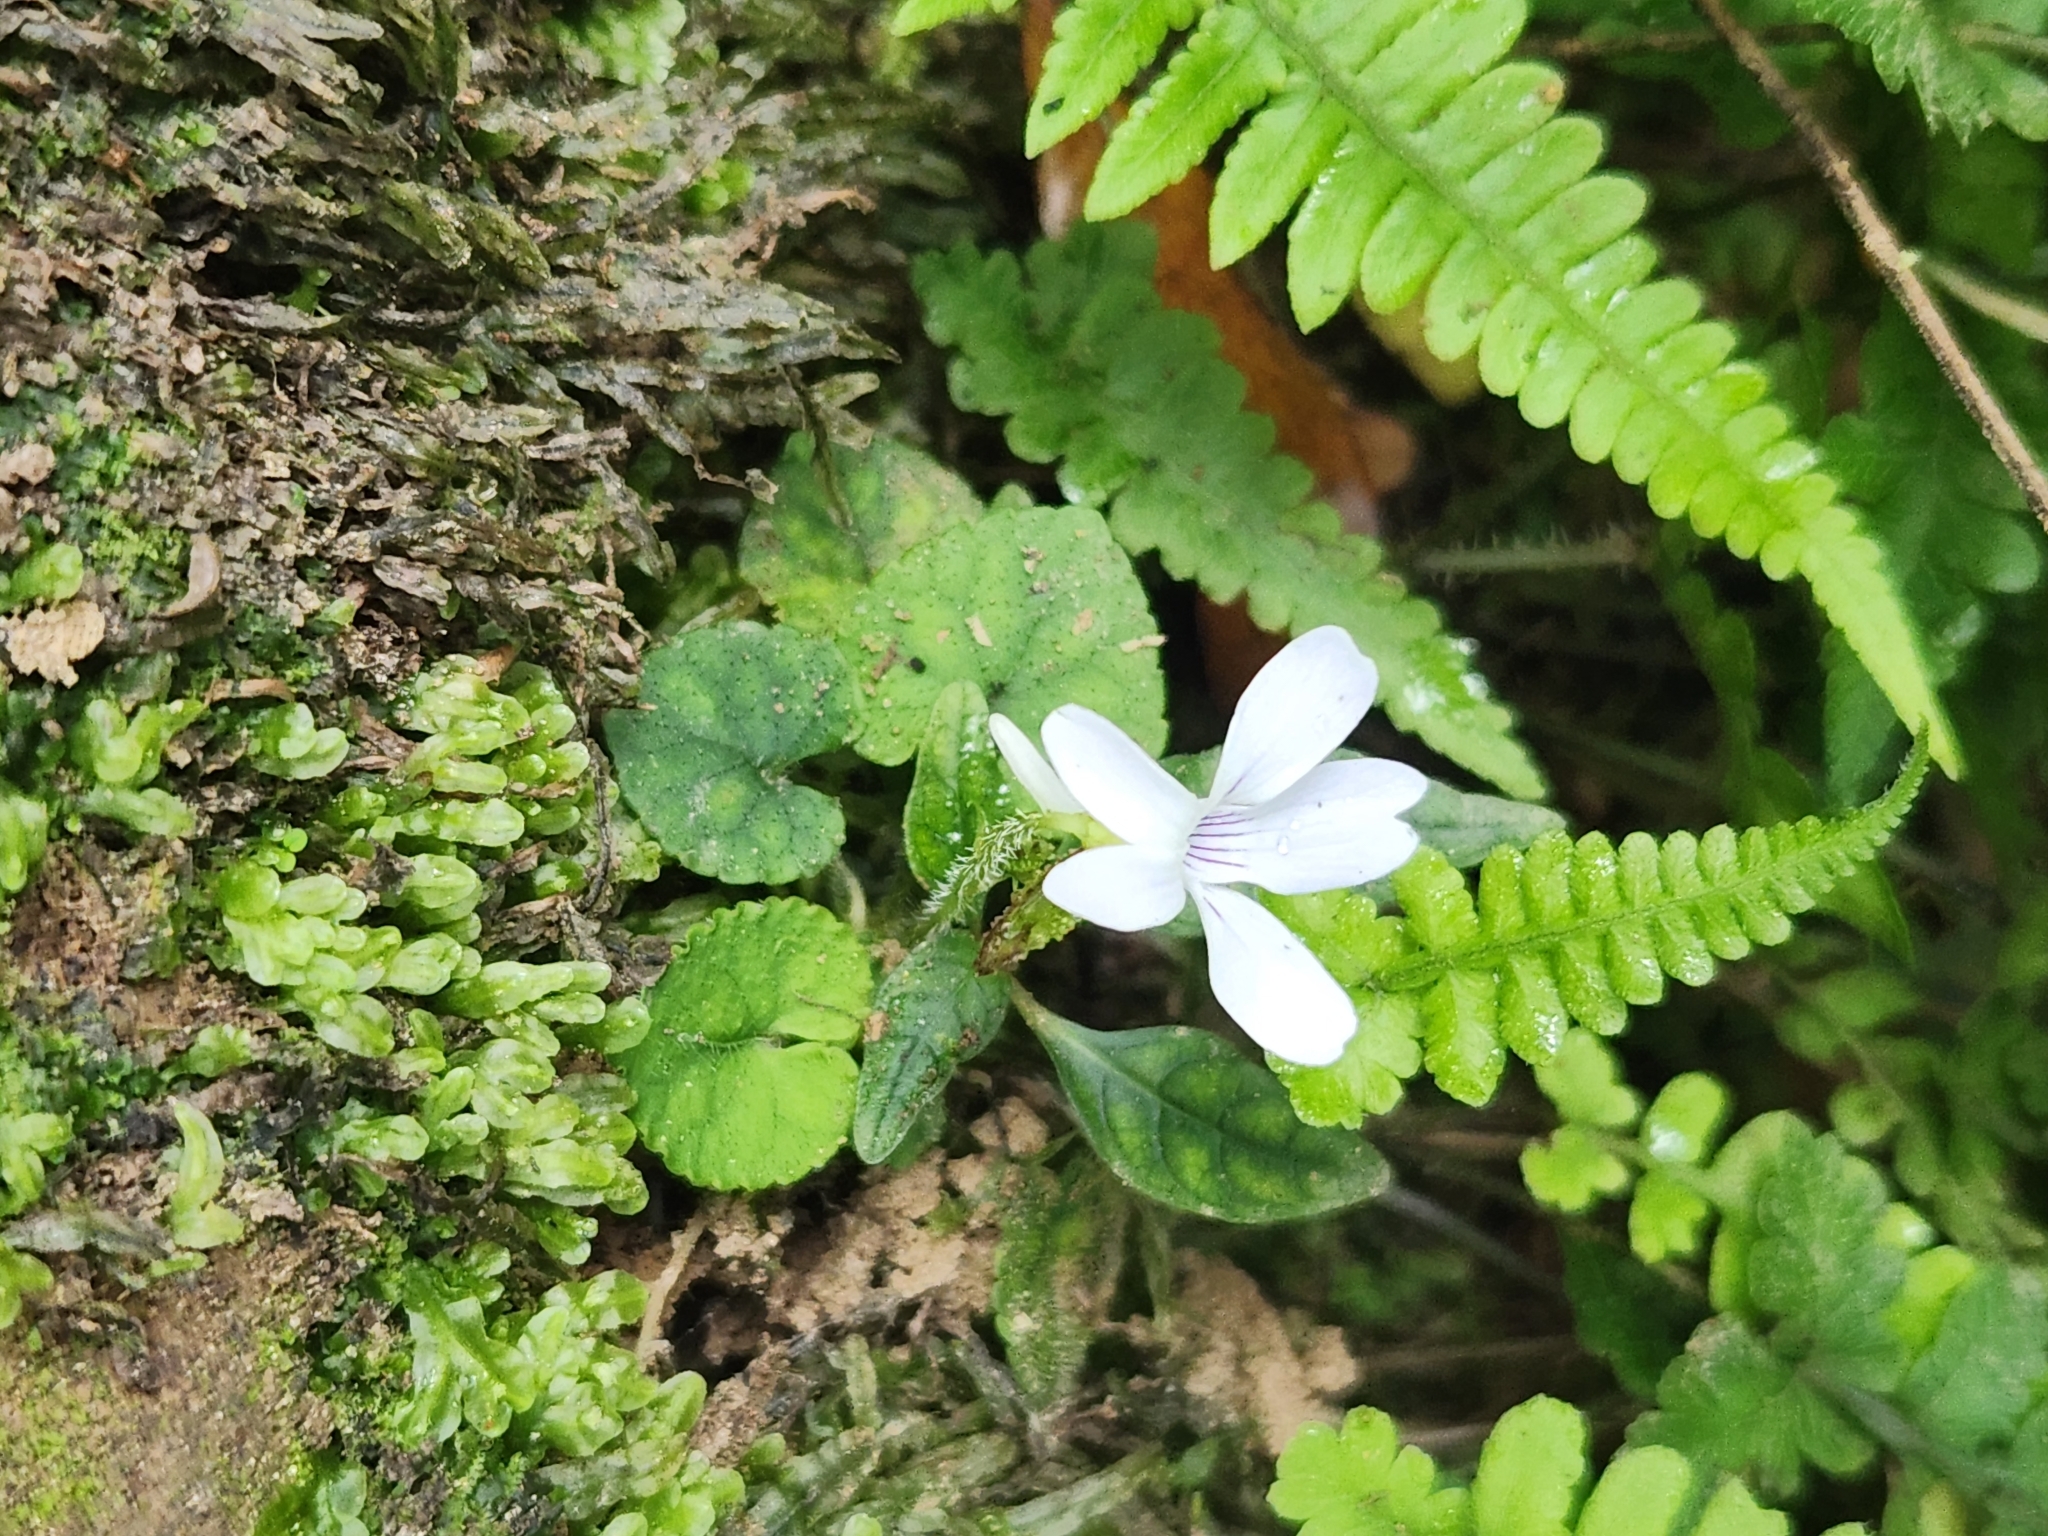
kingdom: Plantae
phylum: Tracheophyta
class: Magnoliopsida
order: Malpighiales
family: Violaceae
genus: Viola
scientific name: Viola formosana
